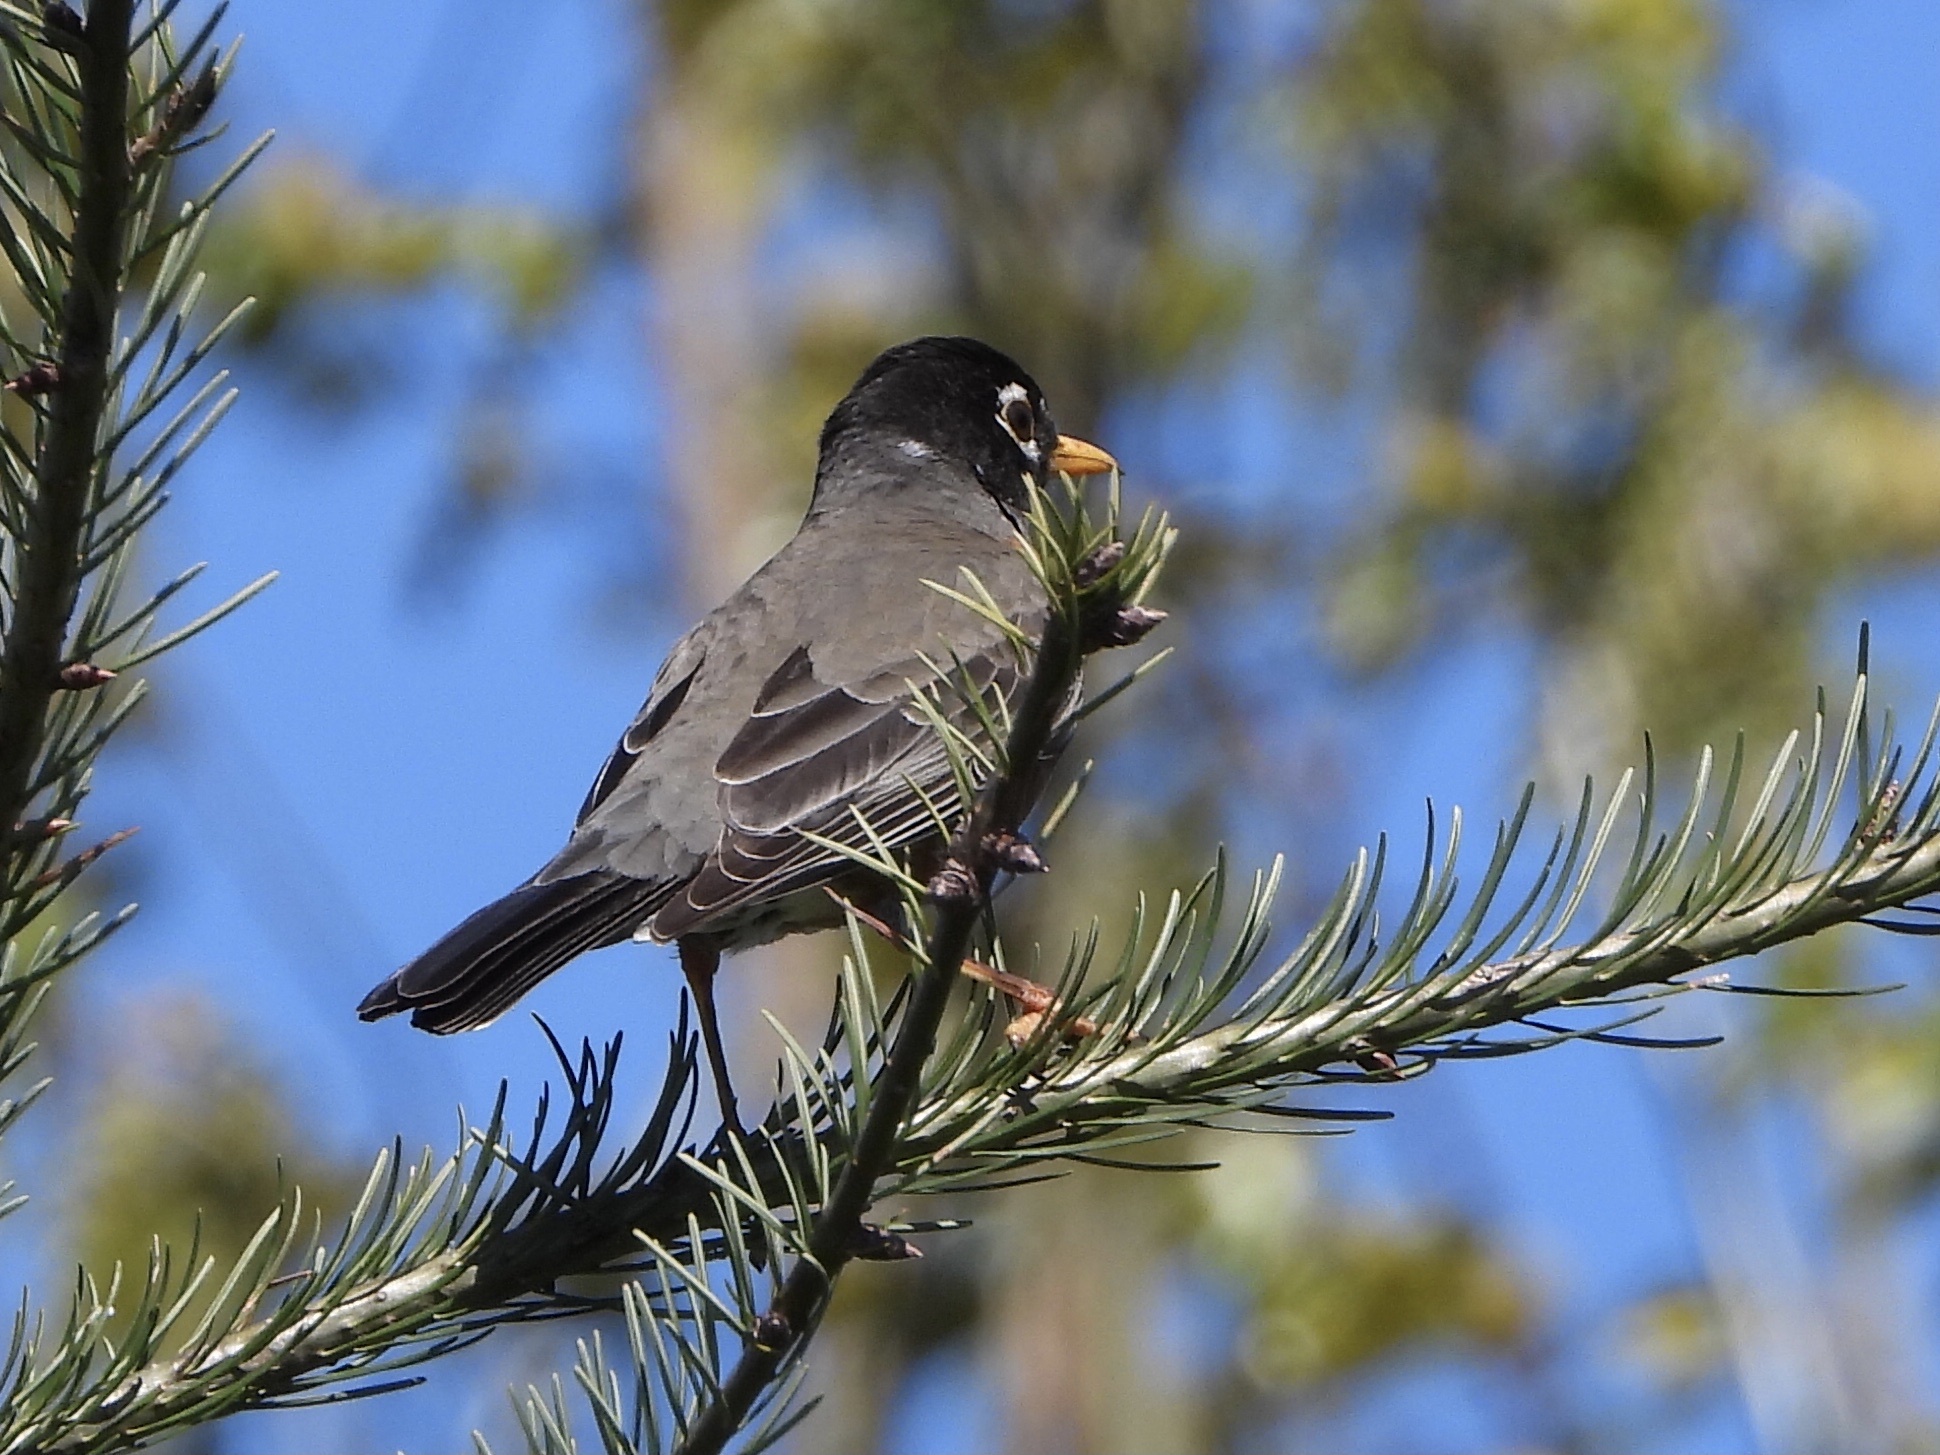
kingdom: Animalia
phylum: Chordata
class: Aves
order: Passeriformes
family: Turdidae
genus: Turdus
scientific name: Turdus migratorius
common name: American robin
